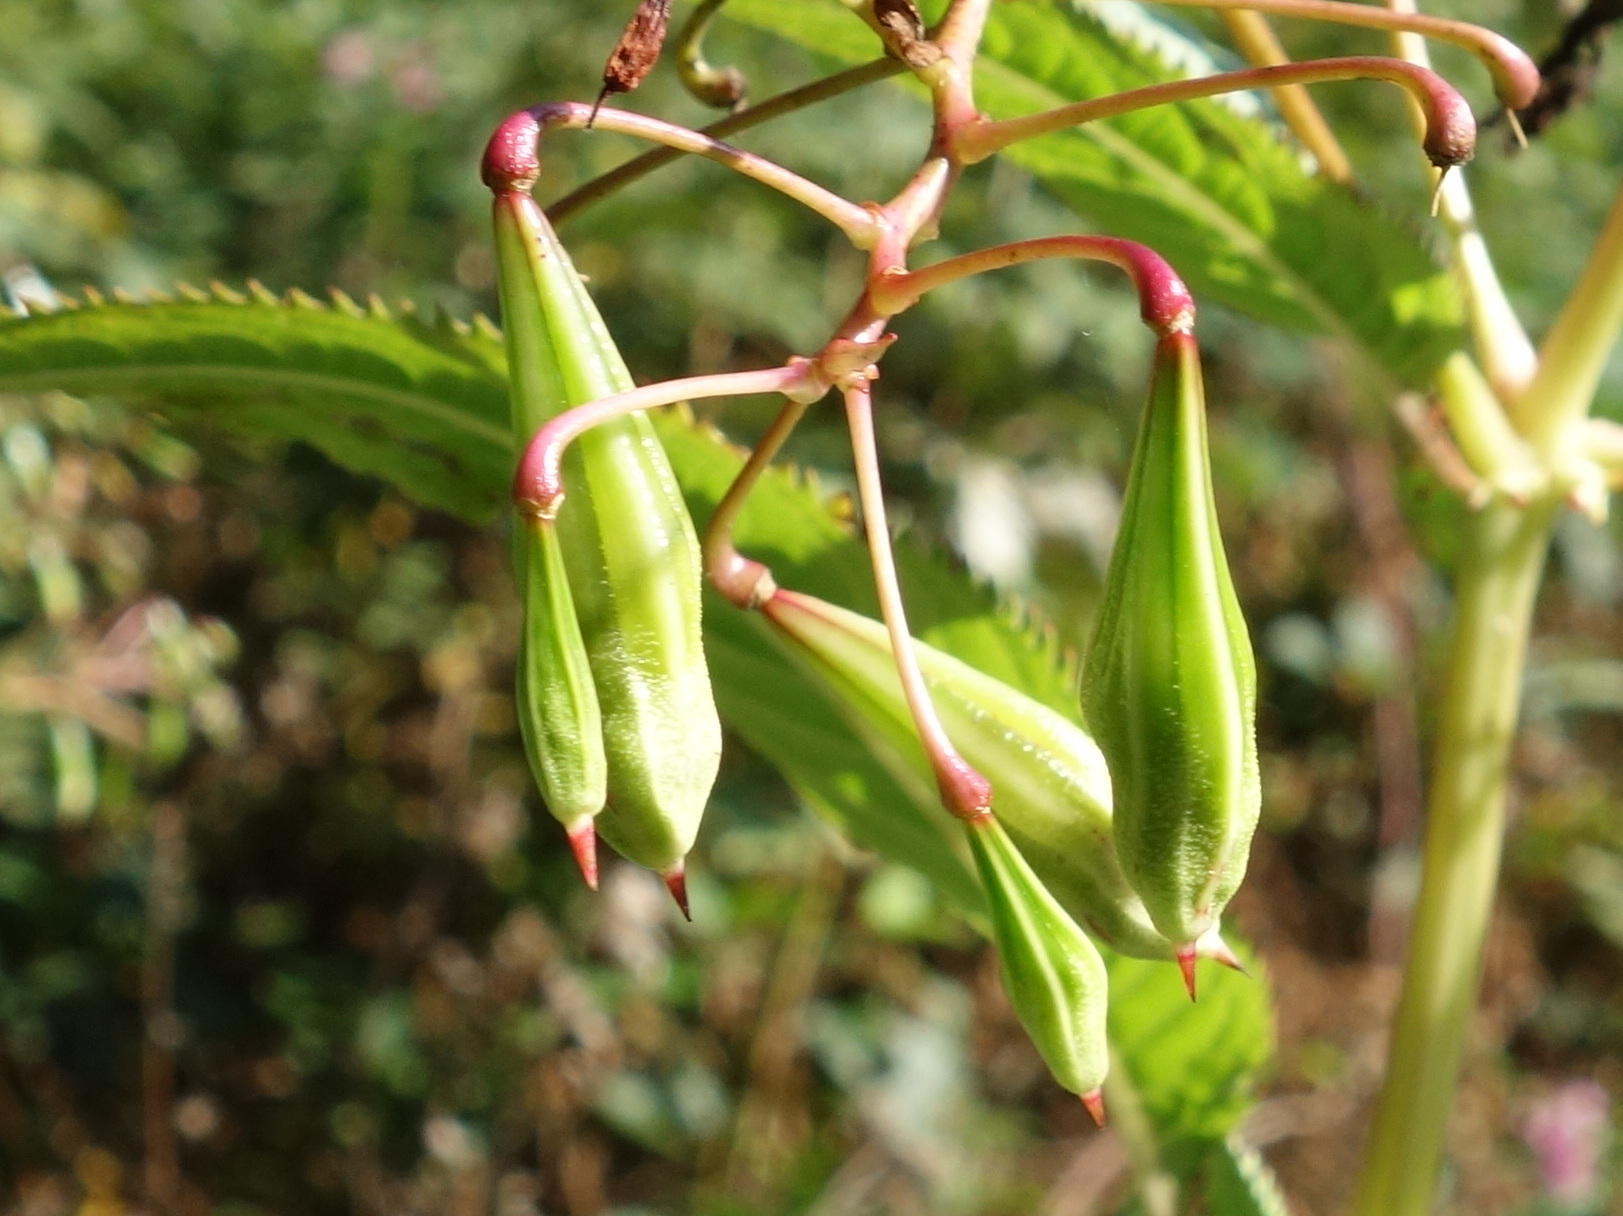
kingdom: Plantae
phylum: Tracheophyta
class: Magnoliopsida
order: Ericales
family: Balsaminaceae
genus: Impatiens
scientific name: Impatiens glandulifera
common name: Himalayan balsam
